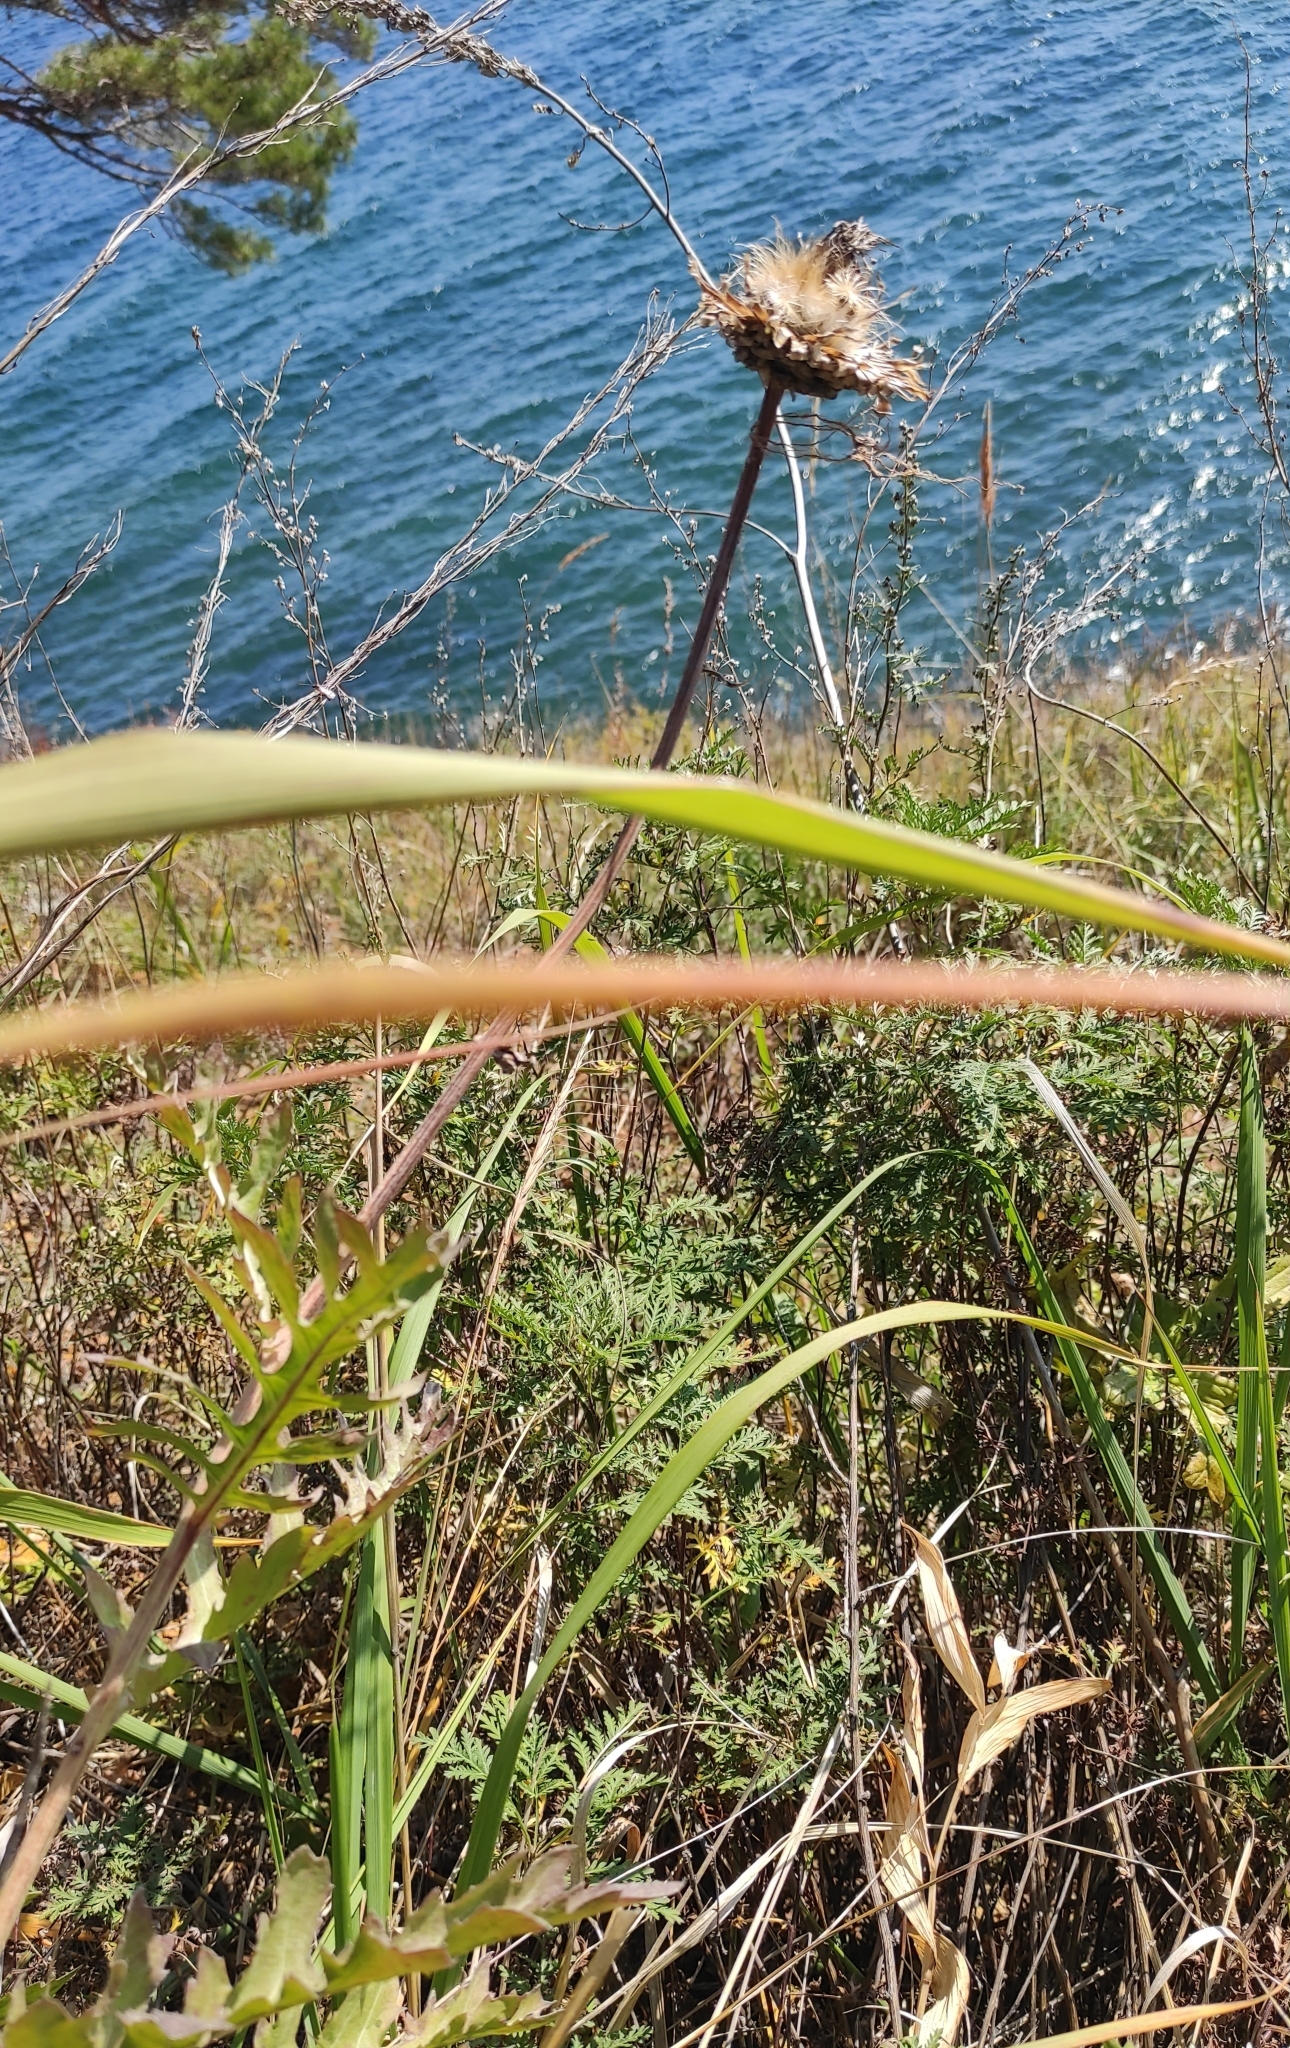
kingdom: Plantae
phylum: Tracheophyta
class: Magnoliopsida
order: Asterales
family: Asteraceae
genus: Leuzea
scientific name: Leuzea uniflora
